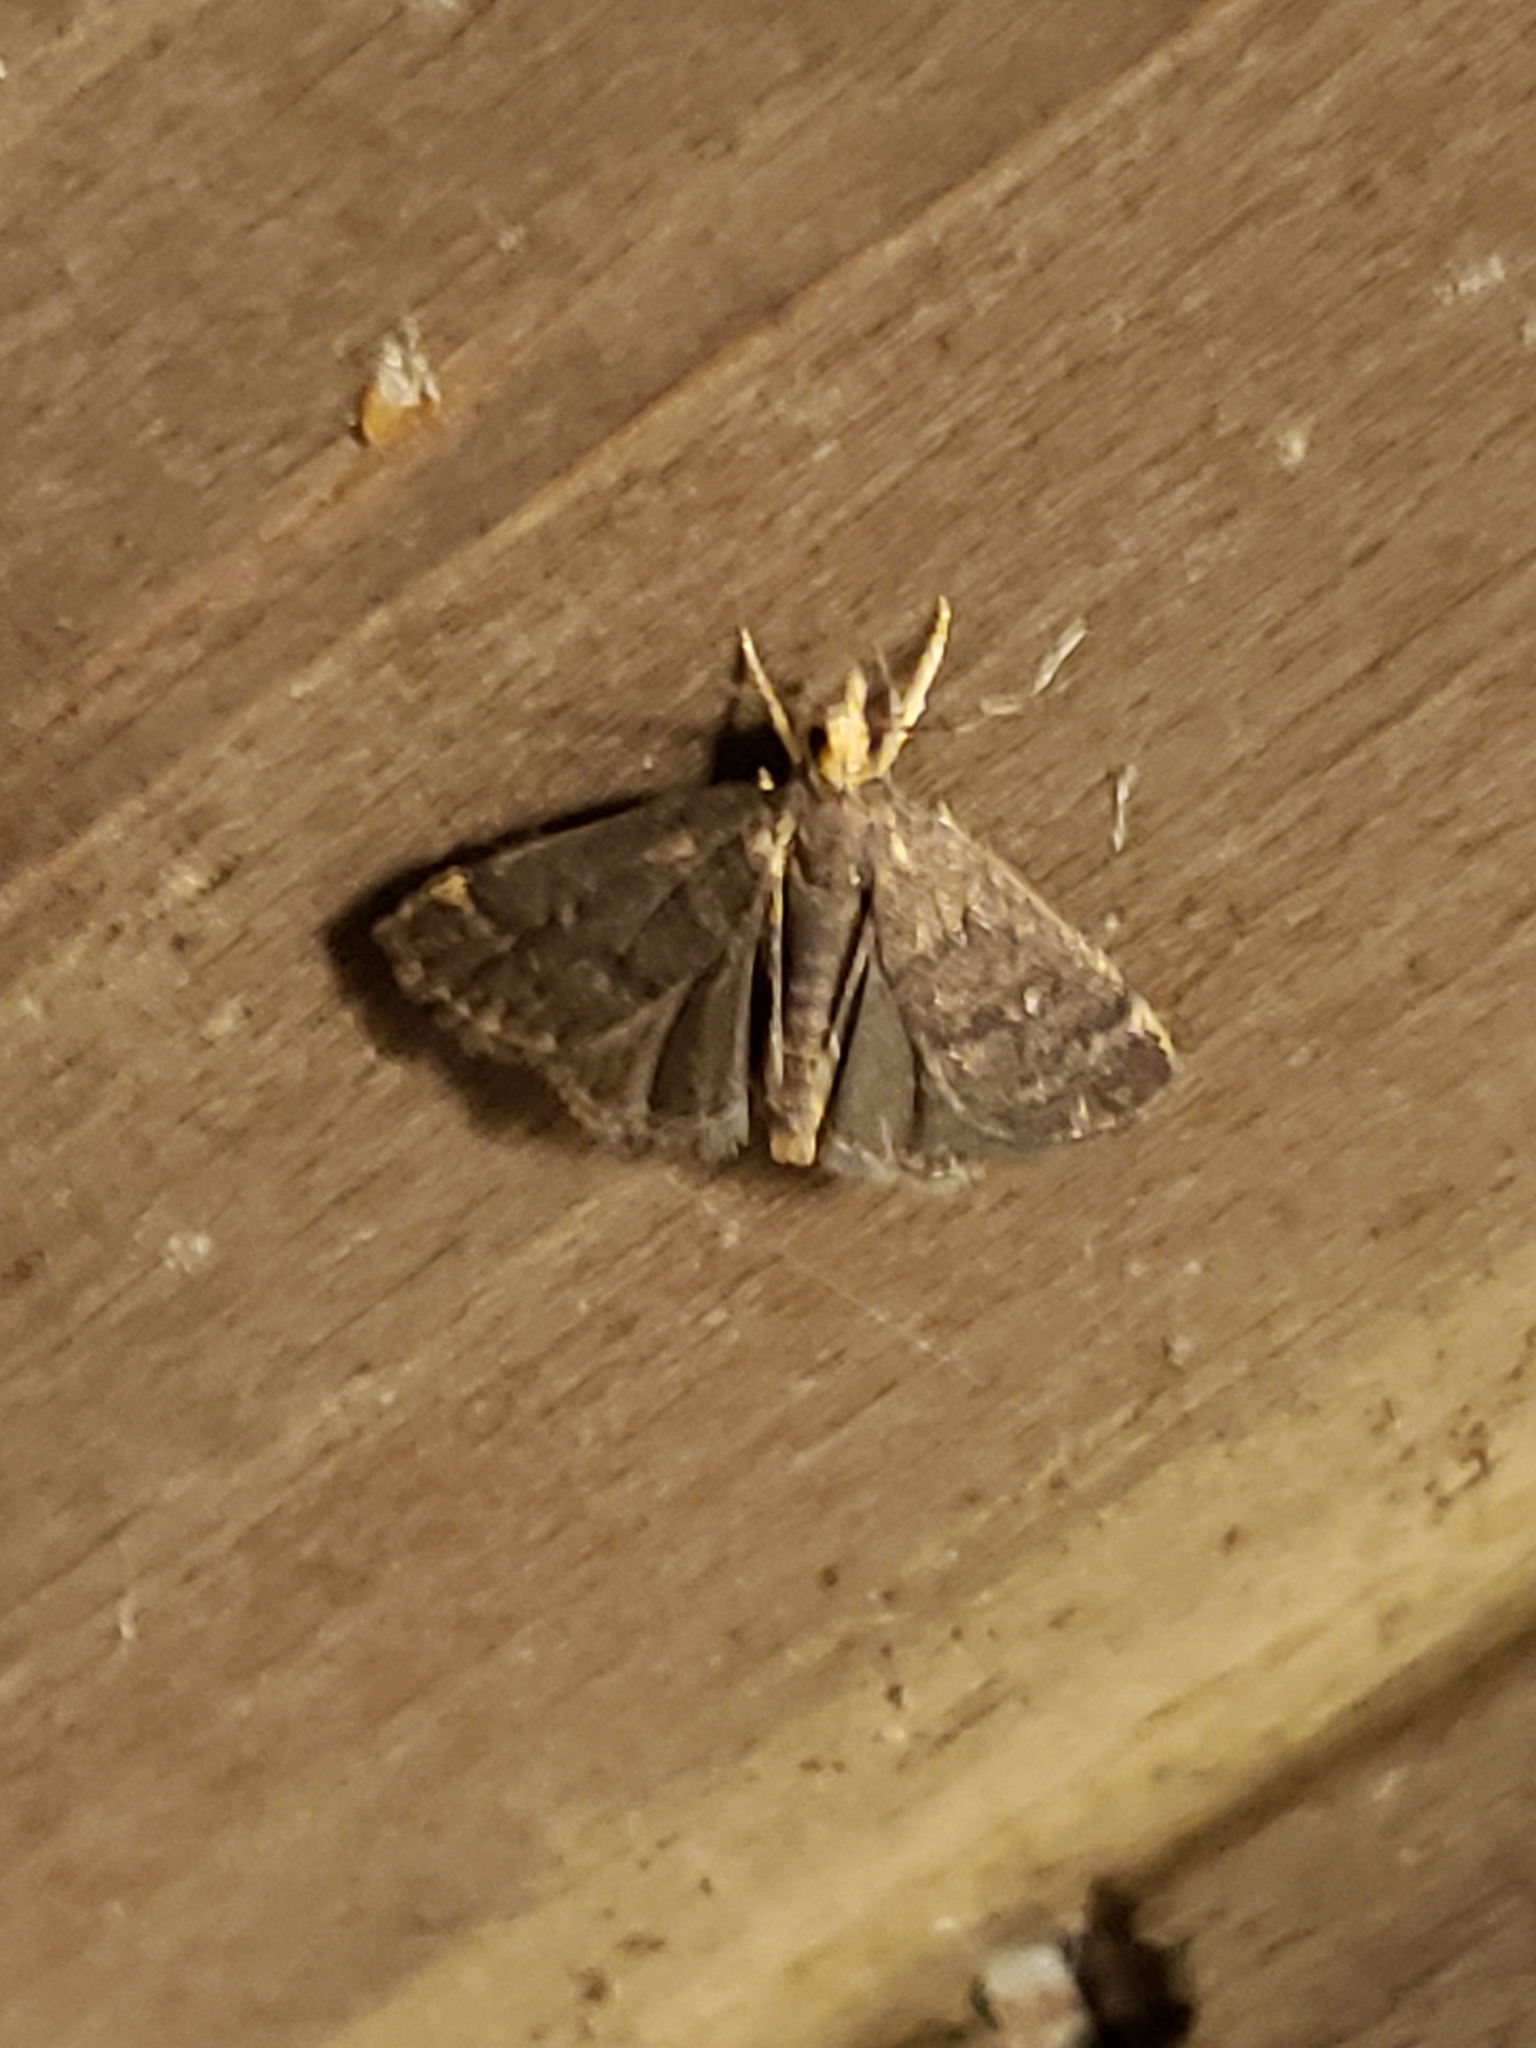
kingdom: Animalia
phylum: Arthropoda
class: Insecta
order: Lepidoptera
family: Crambidae
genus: Pyrausta
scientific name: Pyrausta merrickalis
